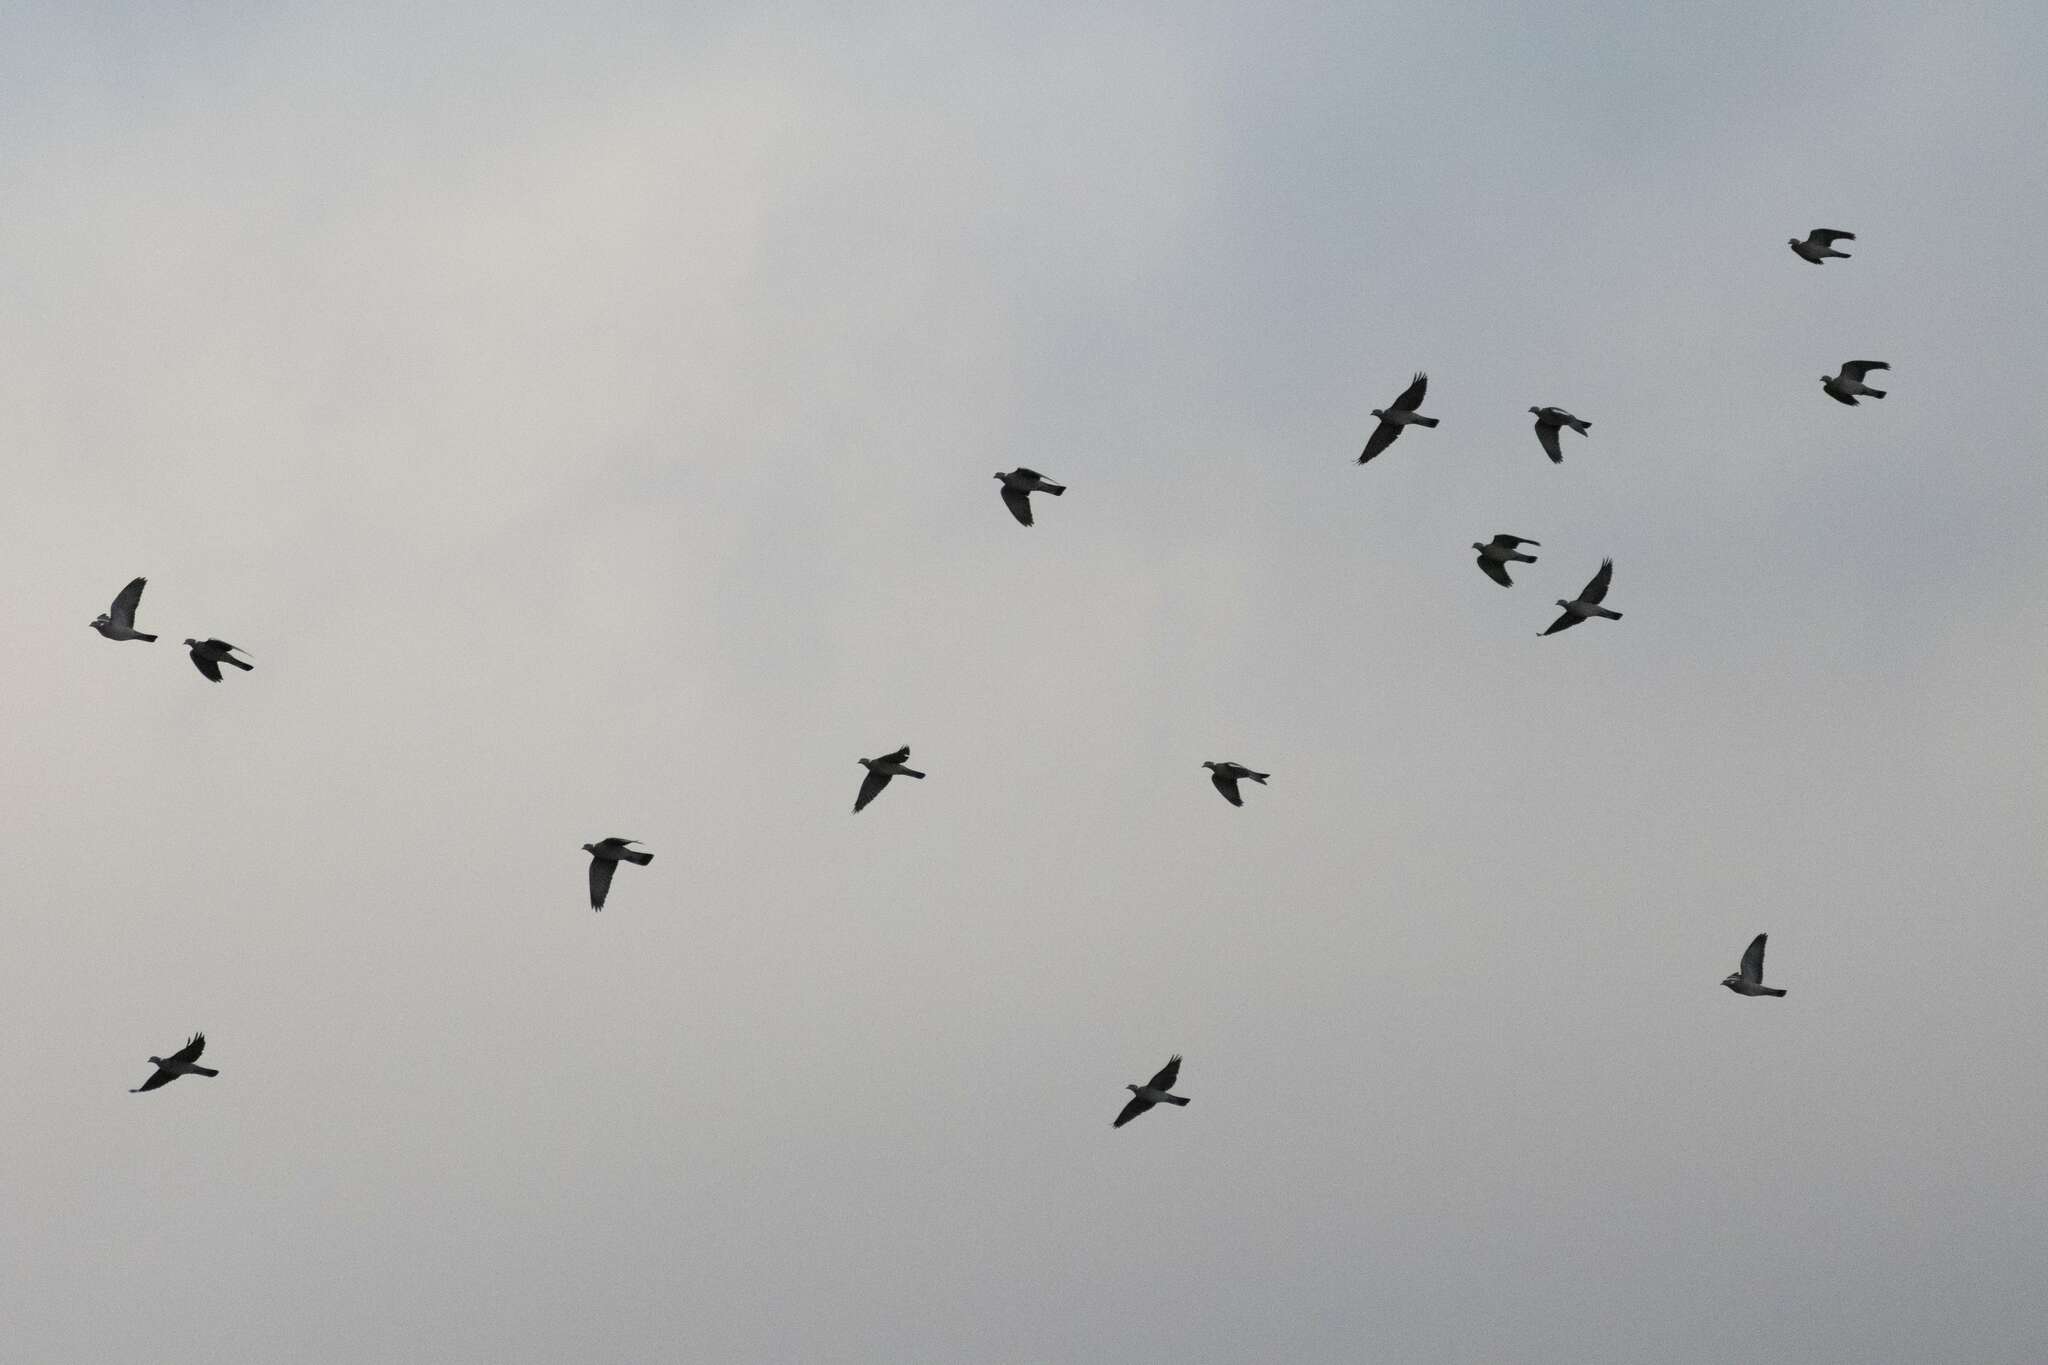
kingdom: Animalia
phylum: Chordata
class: Aves
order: Columbiformes
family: Columbidae
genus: Columba
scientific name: Columba palumbus
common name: Common wood pigeon
